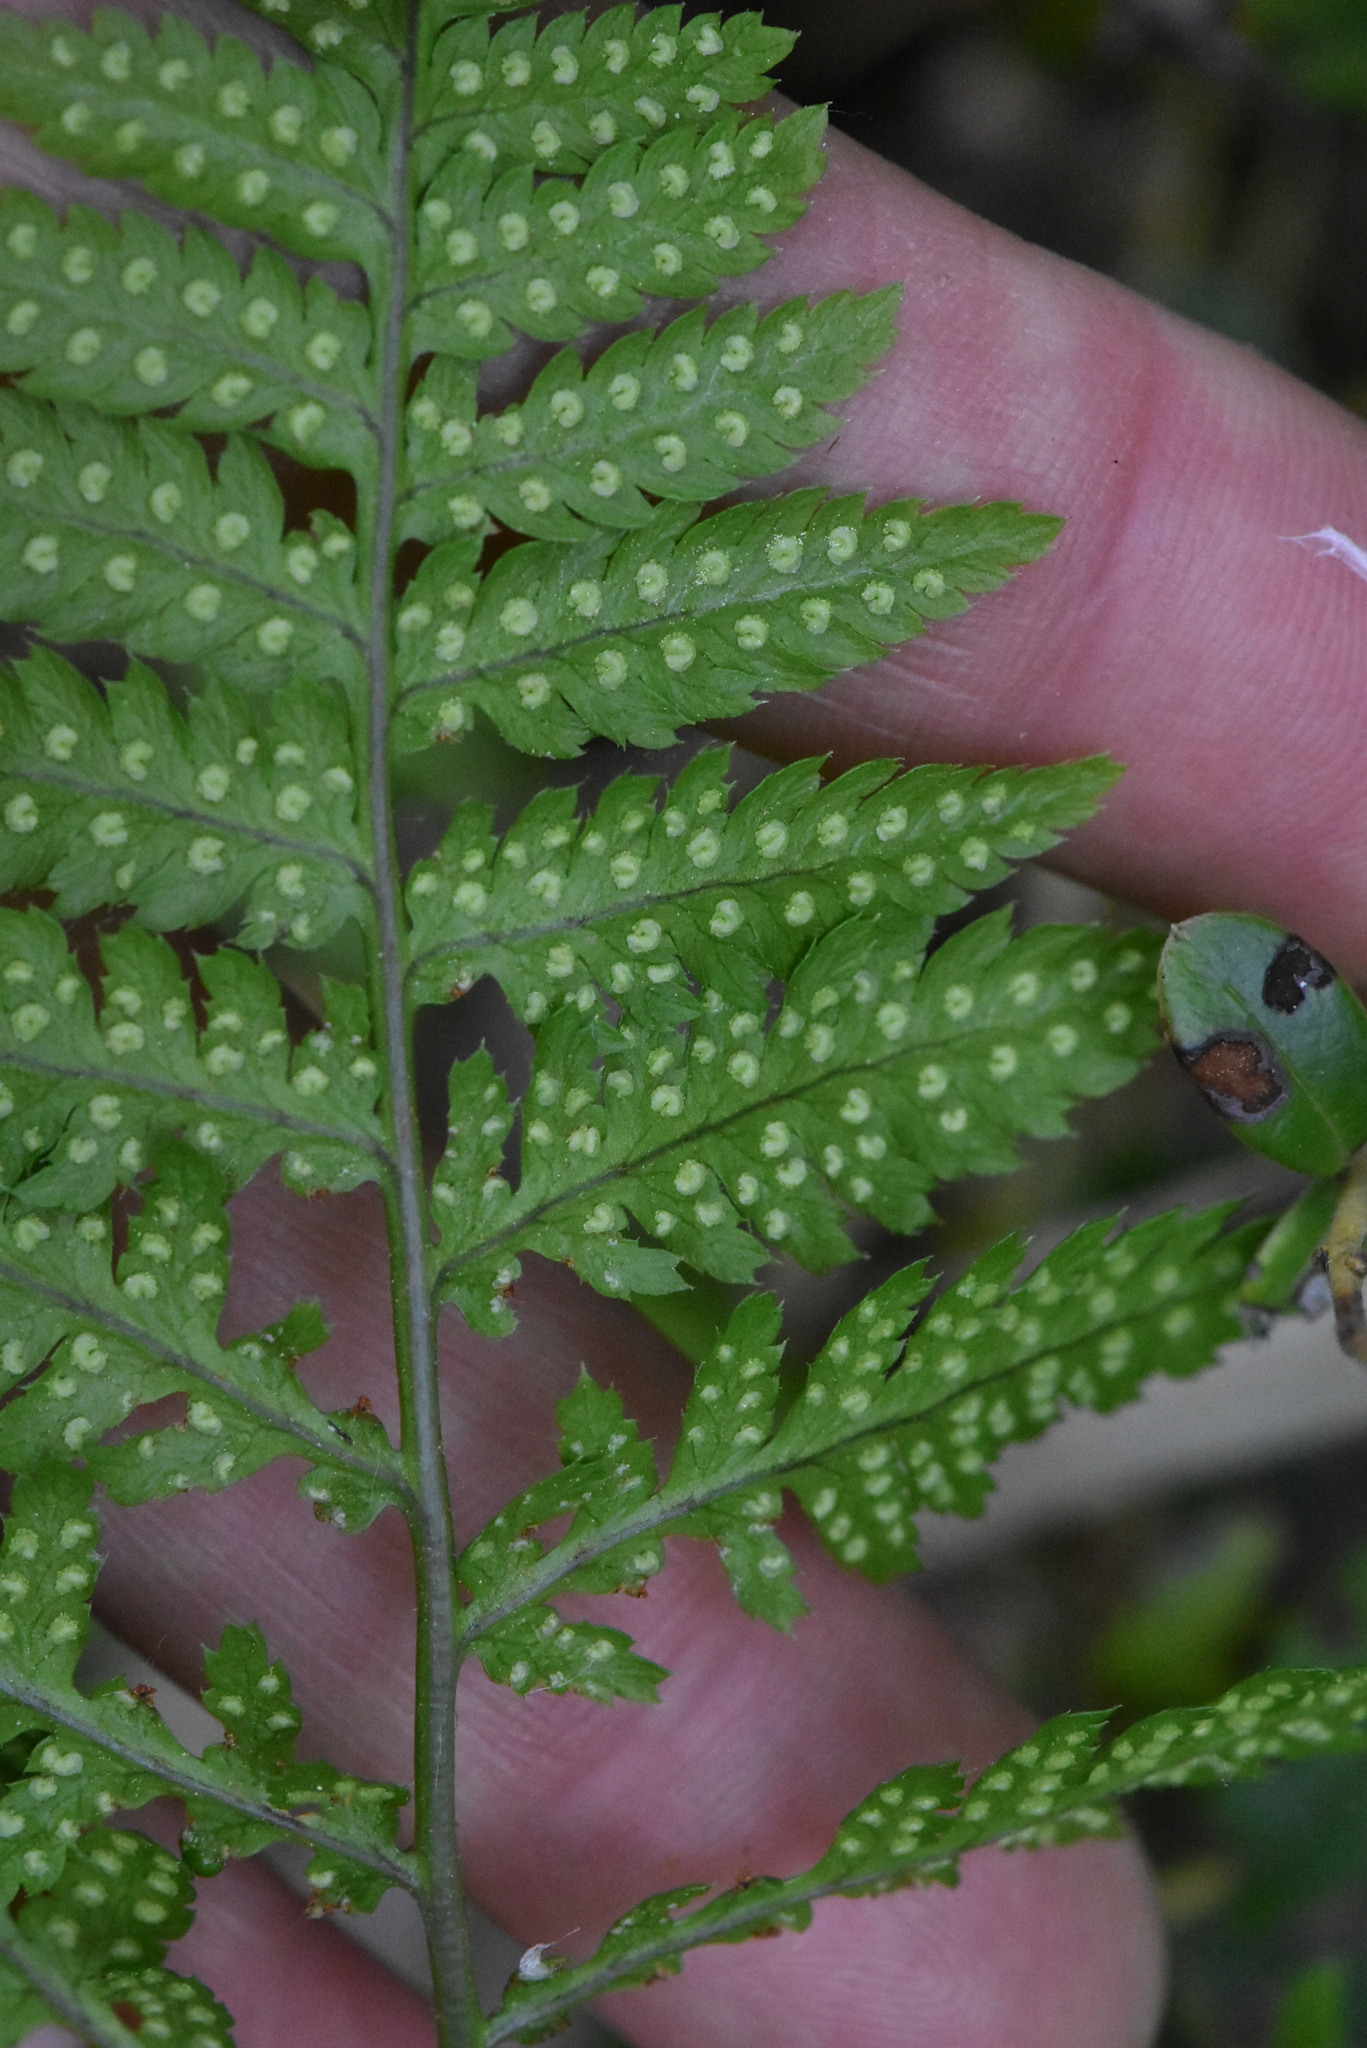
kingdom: Plantae
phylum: Tracheophyta
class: Polypodiopsida
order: Polypodiales
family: Dryopteridaceae
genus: Dryopteris
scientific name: Dryopteris carthusiana
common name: Narrow buckler-fern
